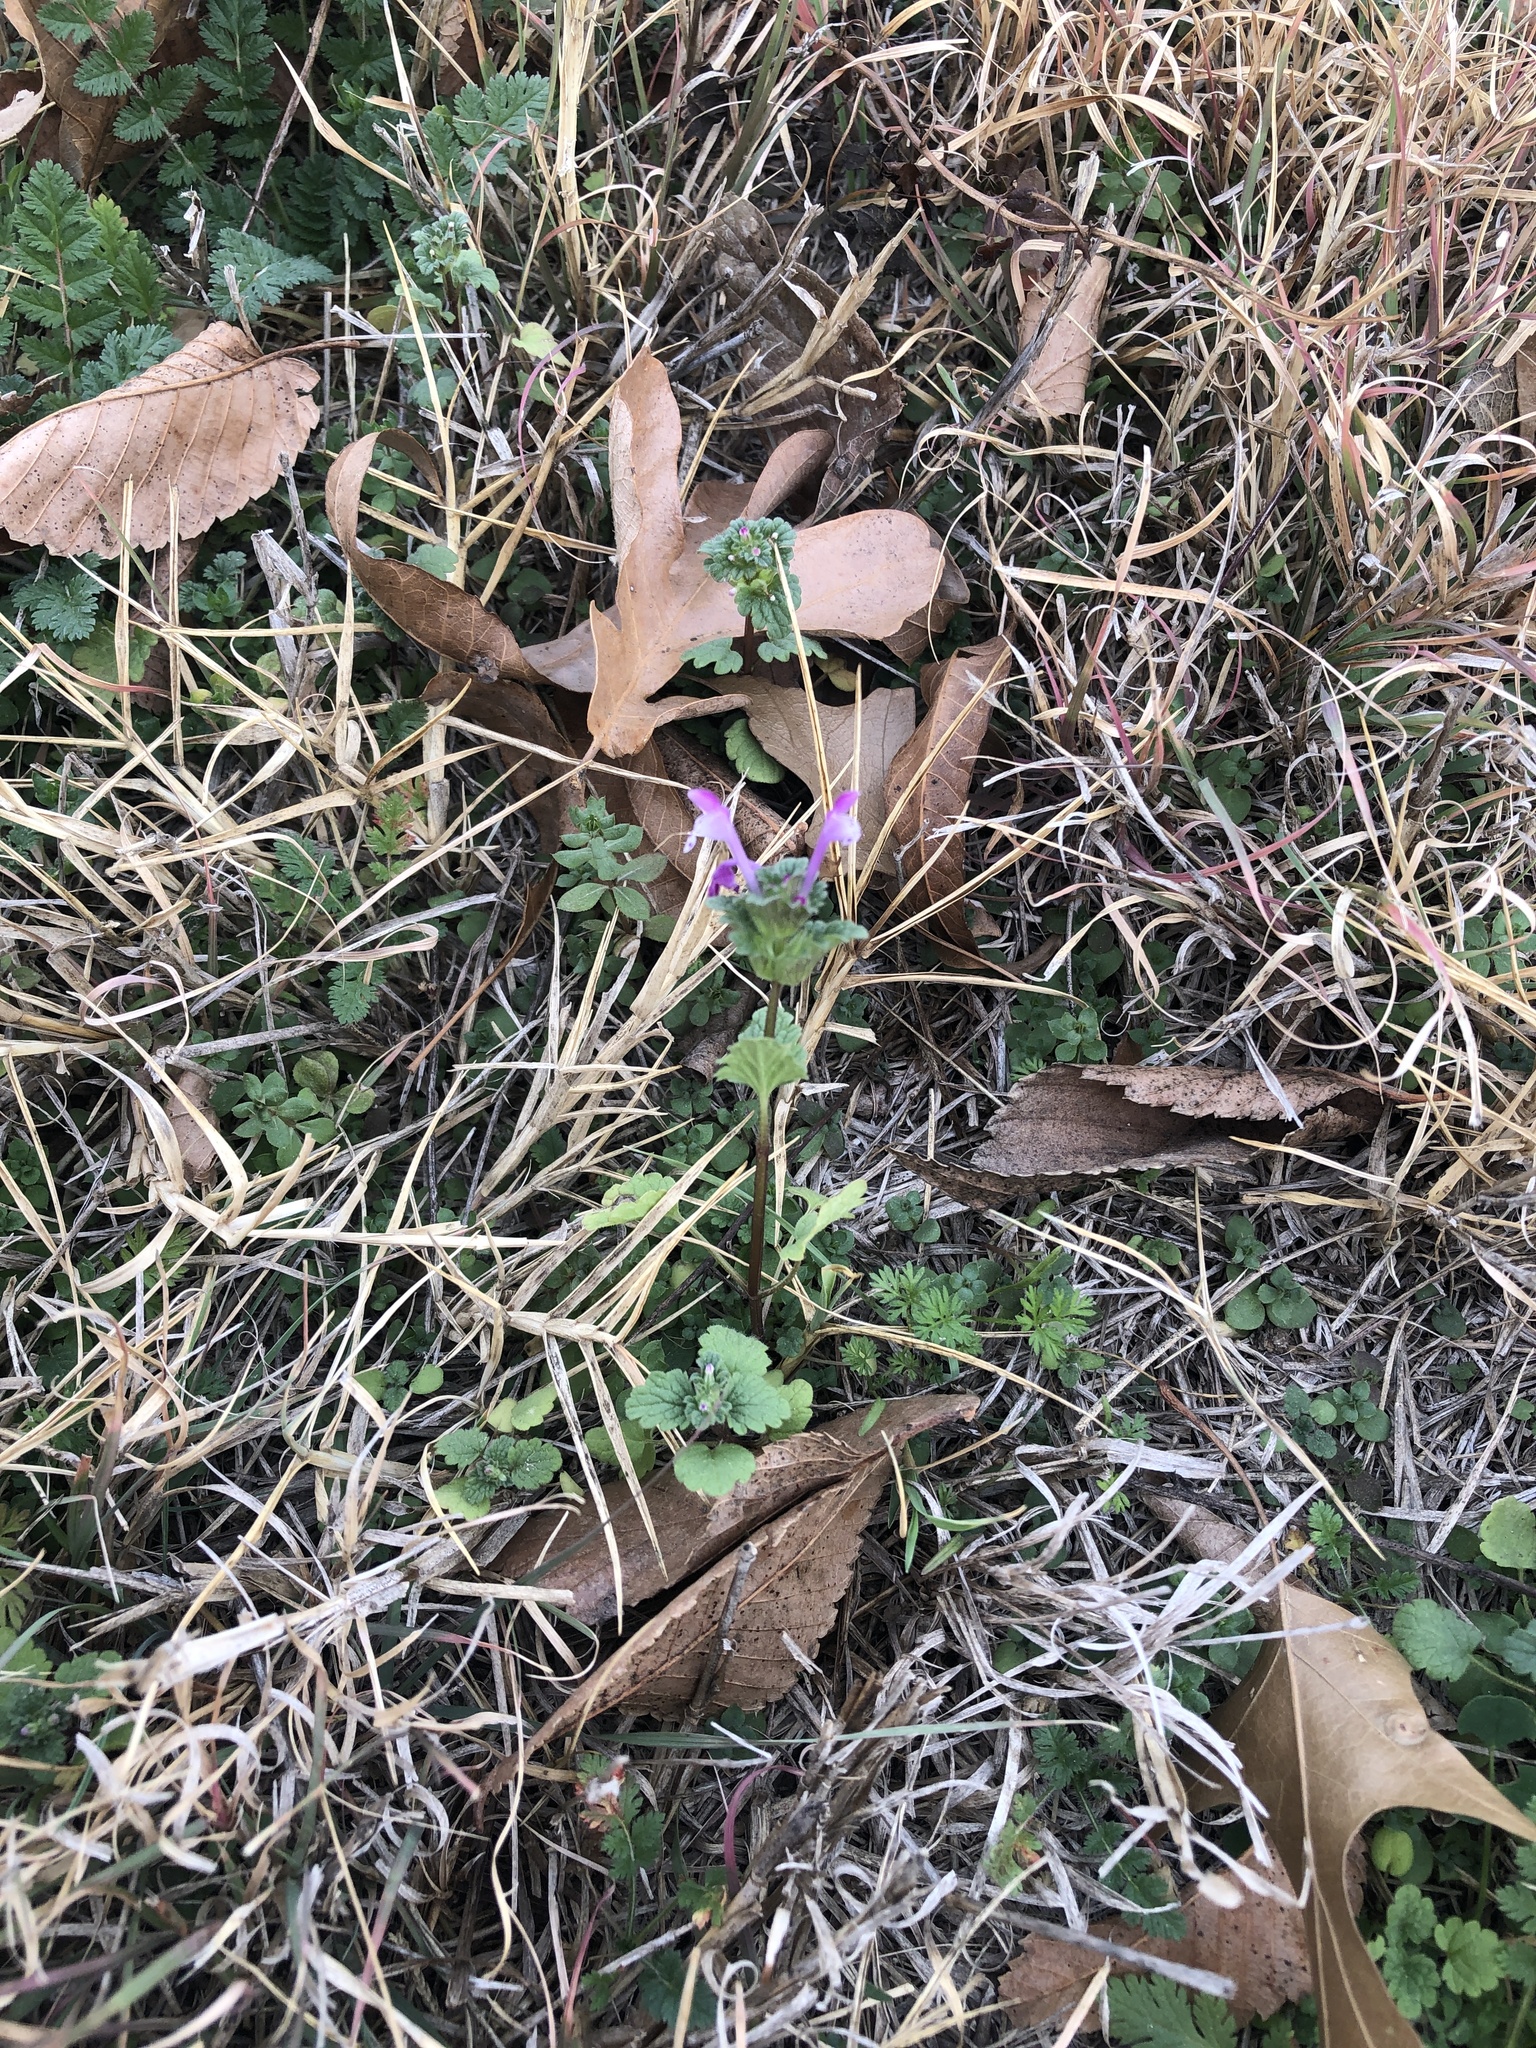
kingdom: Plantae
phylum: Tracheophyta
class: Magnoliopsida
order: Lamiales
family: Lamiaceae
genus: Lamium
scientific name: Lamium amplexicaule
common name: Henbit dead-nettle
